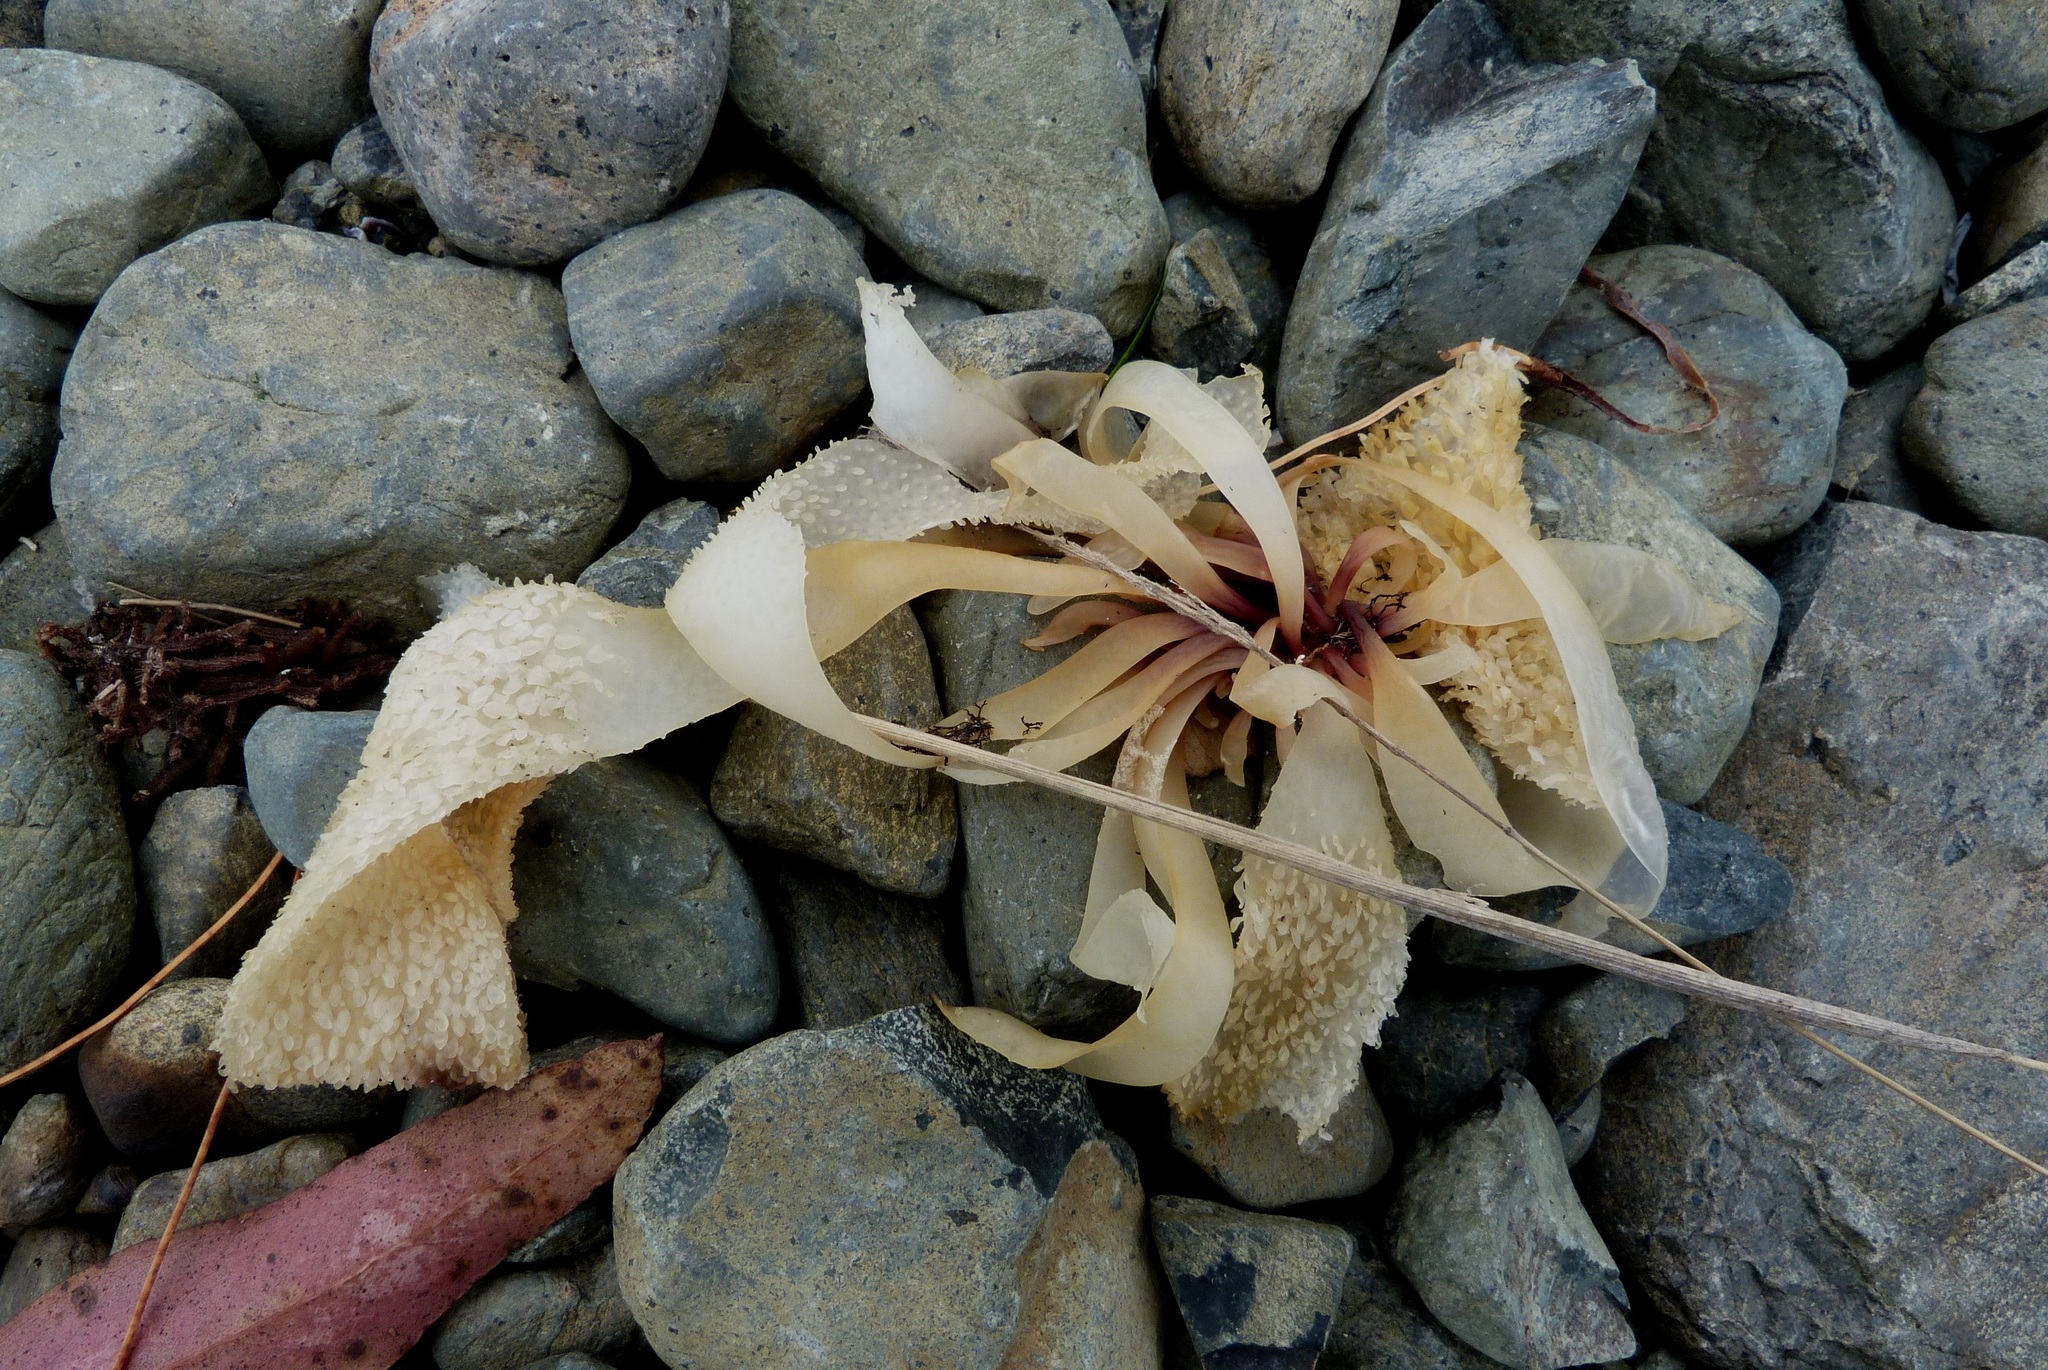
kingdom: Plantae
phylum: Rhodophyta
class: Florideophyceae
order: Gigartinales
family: Gigartinaceae
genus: Sarcothalia
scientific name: Sarcothalia radula
